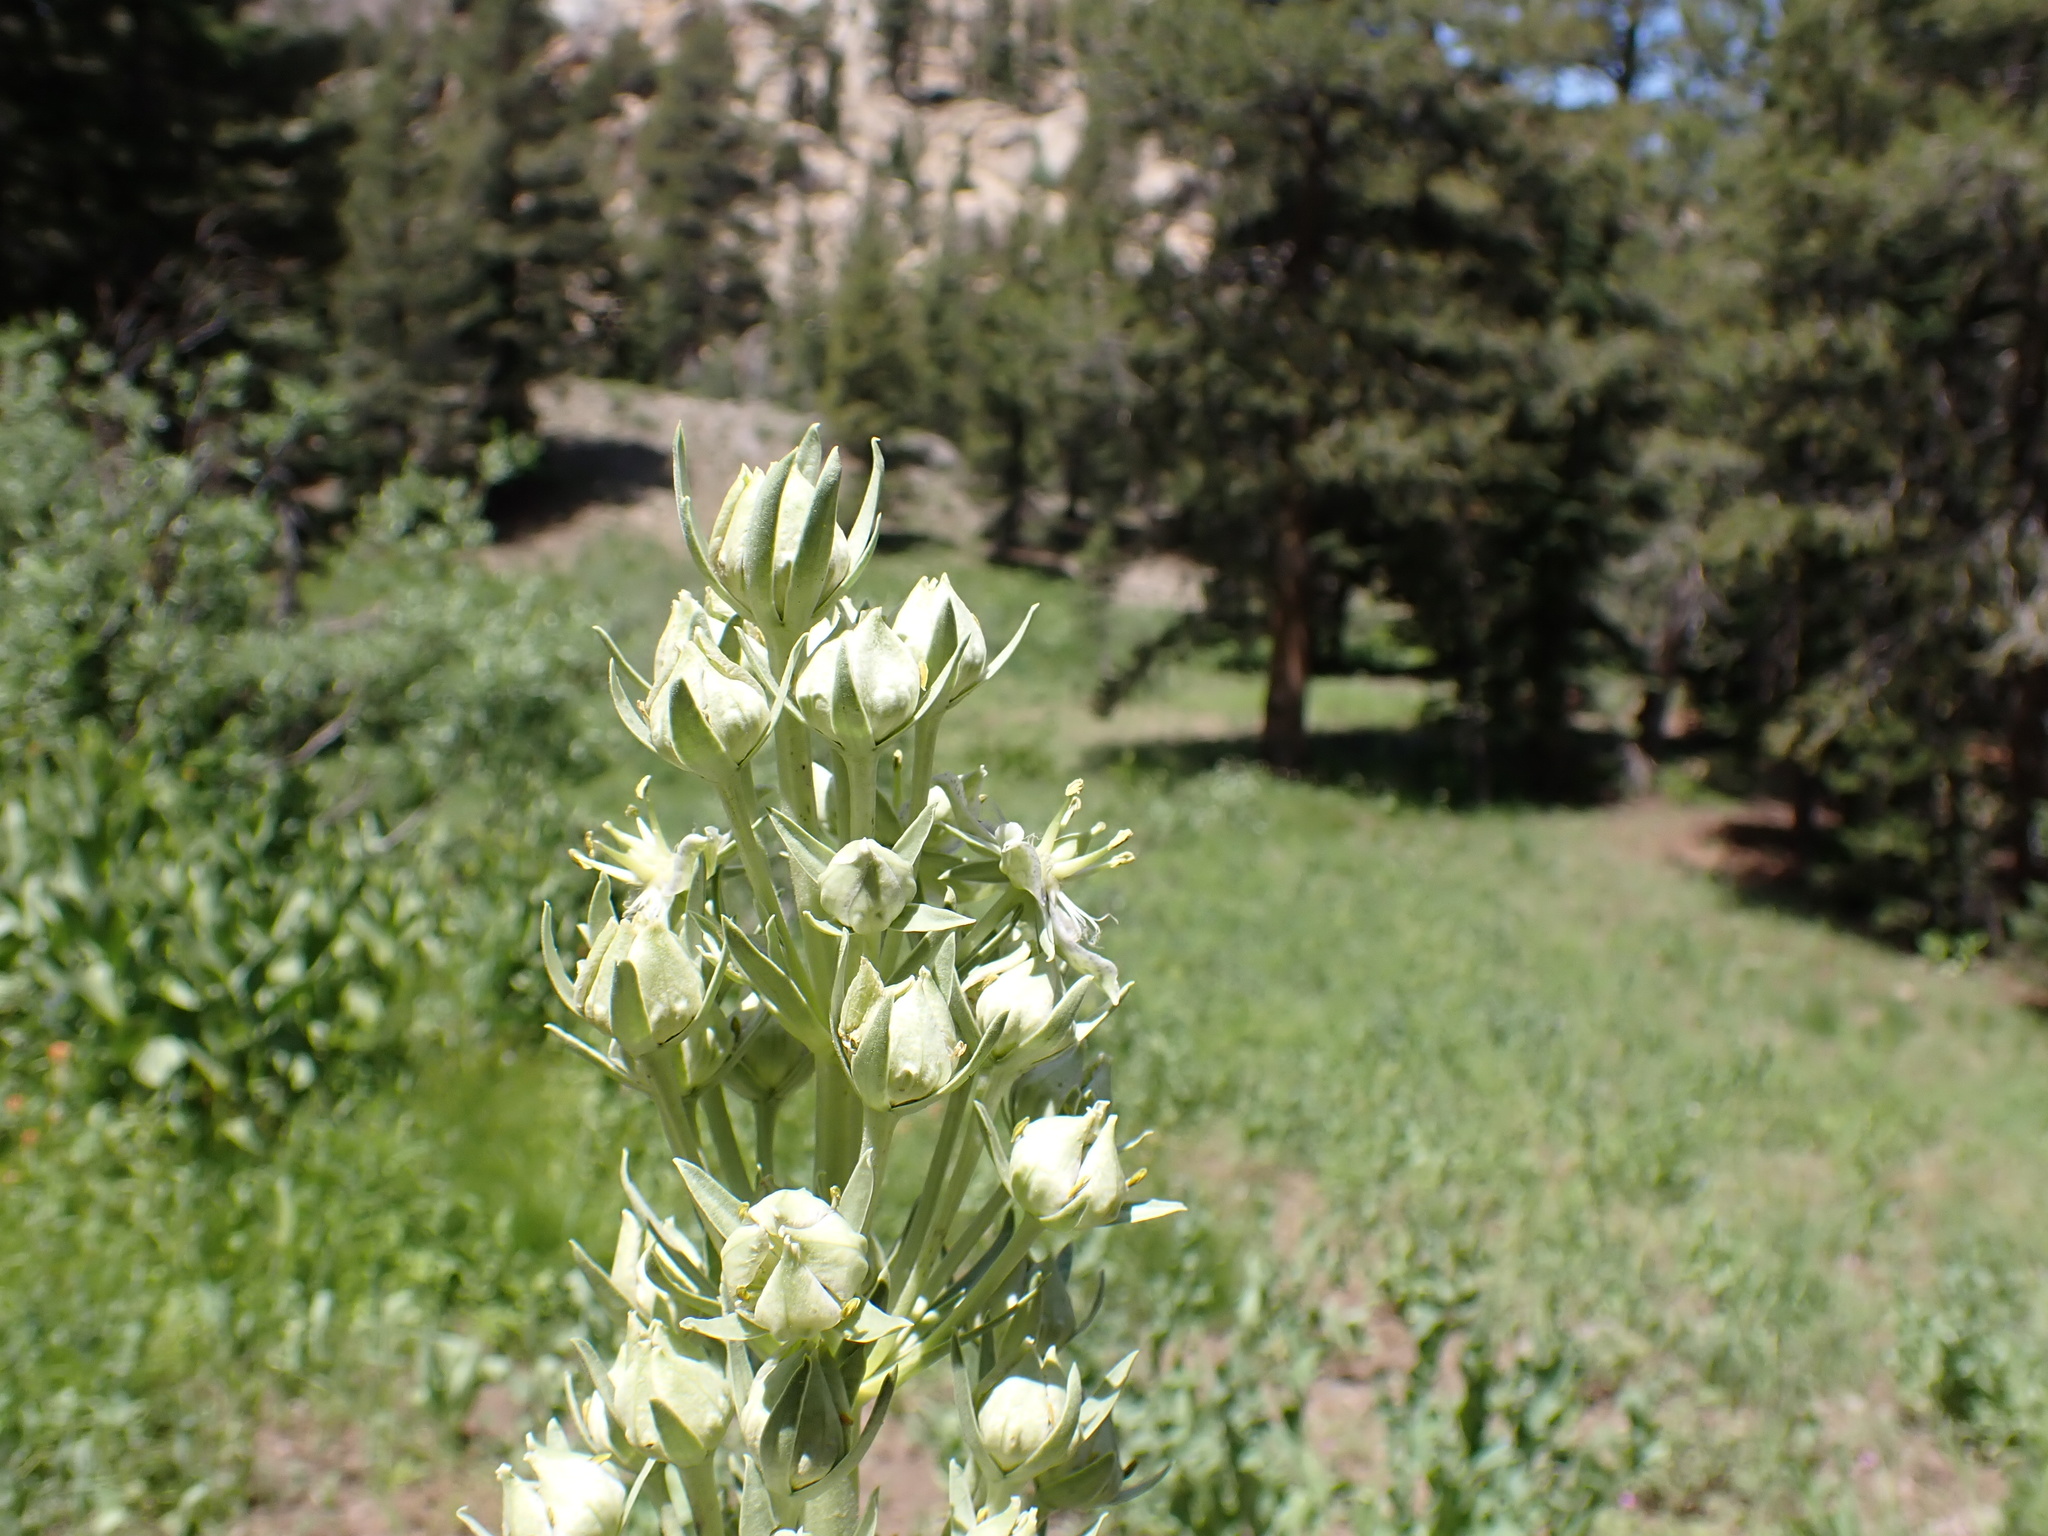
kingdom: Plantae
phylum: Tracheophyta
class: Magnoliopsida
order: Gentianales
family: Gentianaceae
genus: Frasera
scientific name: Frasera speciosa
